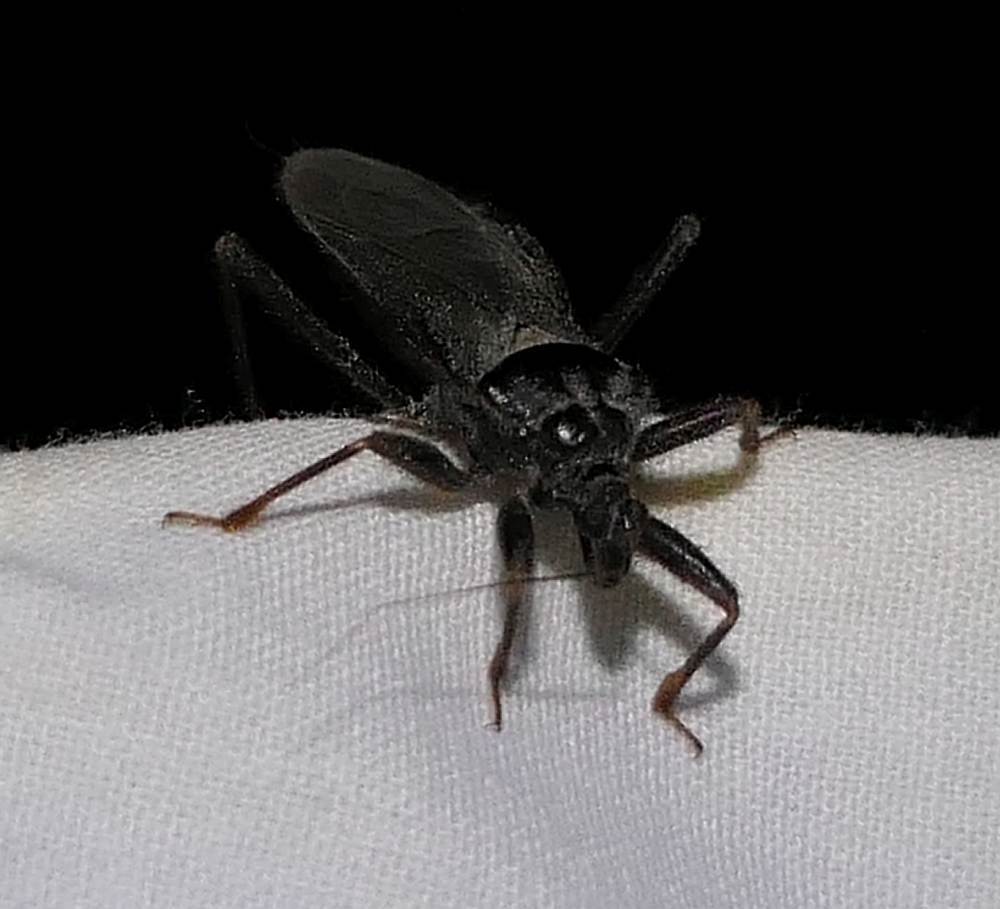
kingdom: Animalia
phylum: Arthropoda
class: Insecta
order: Hemiptera
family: Reduviidae
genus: Reduvius
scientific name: Reduvius personatus
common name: Masked hunter
